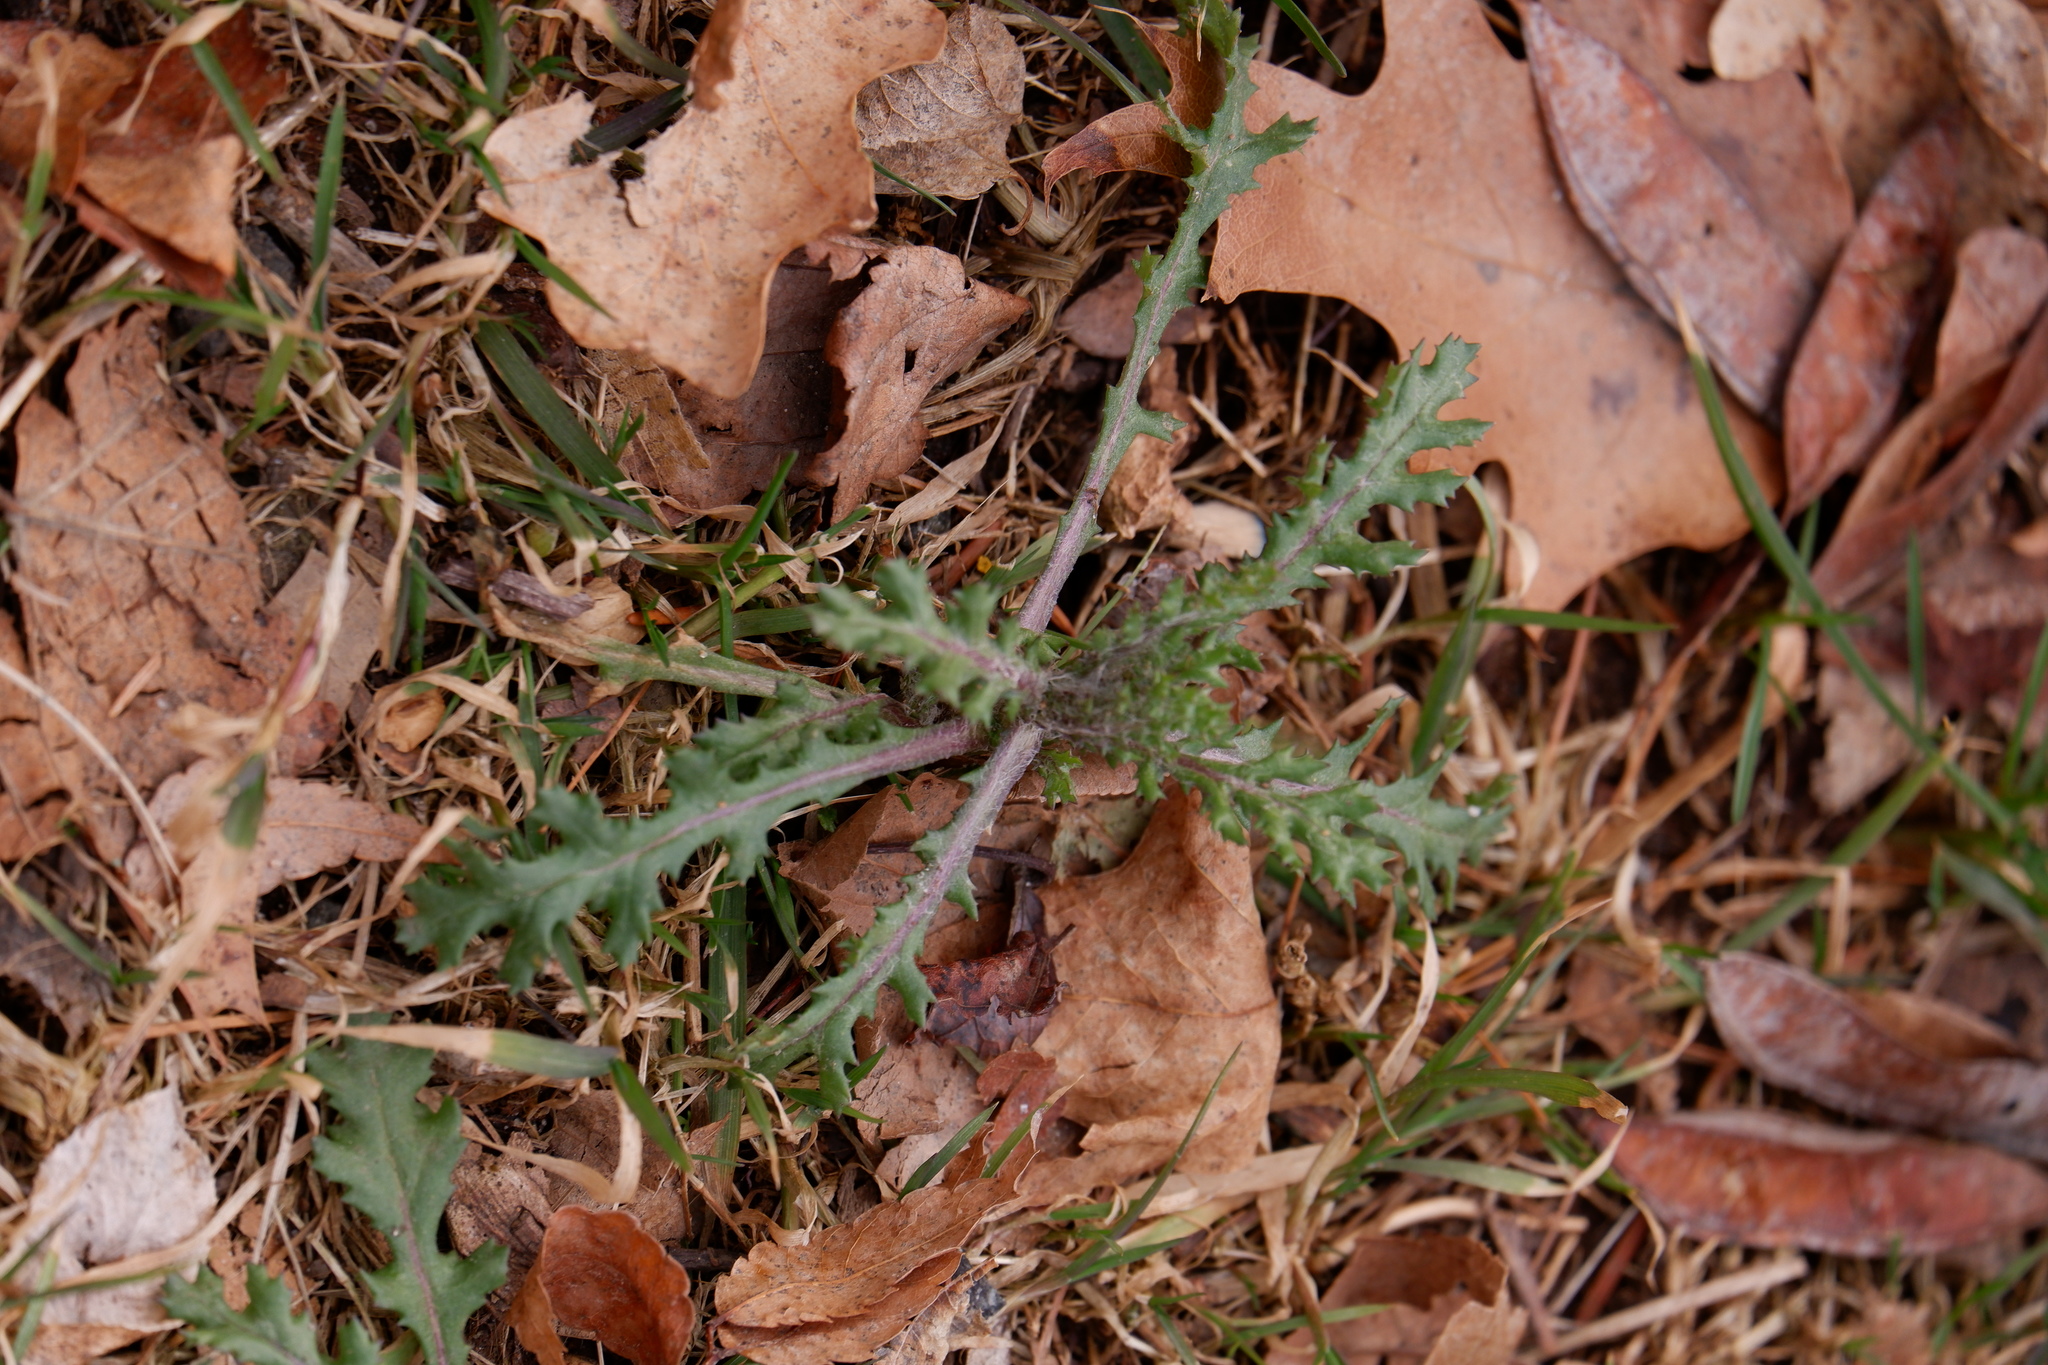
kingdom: Plantae
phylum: Tracheophyta
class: Magnoliopsida
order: Asterales
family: Asteraceae
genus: Senecio
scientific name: Senecio vulgaris
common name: Old-man-in-the-spring
